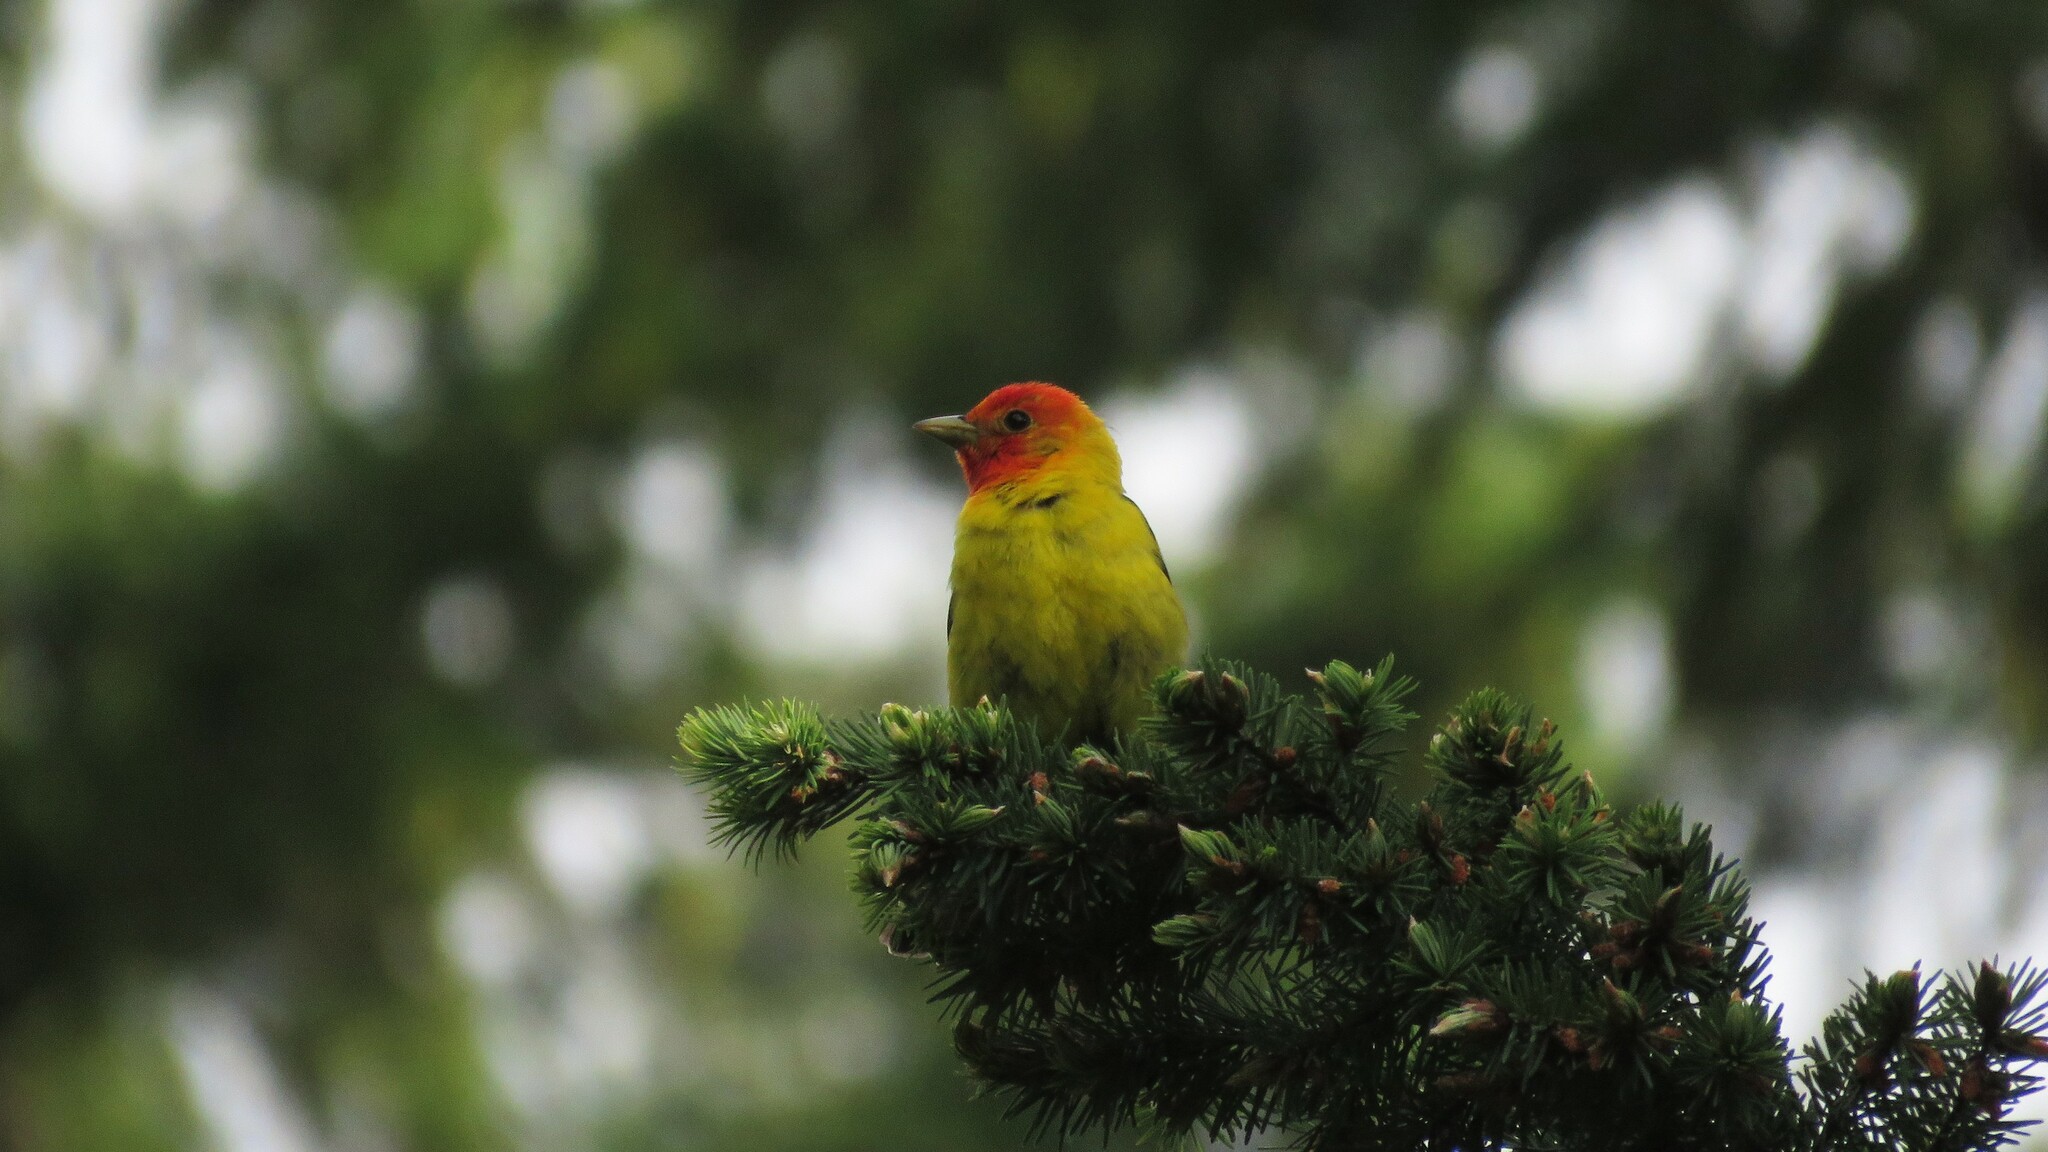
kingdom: Animalia
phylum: Chordata
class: Aves
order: Passeriformes
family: Cardinalidae
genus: Piranga
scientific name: Piranga ludoviciana
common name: Western tanager
